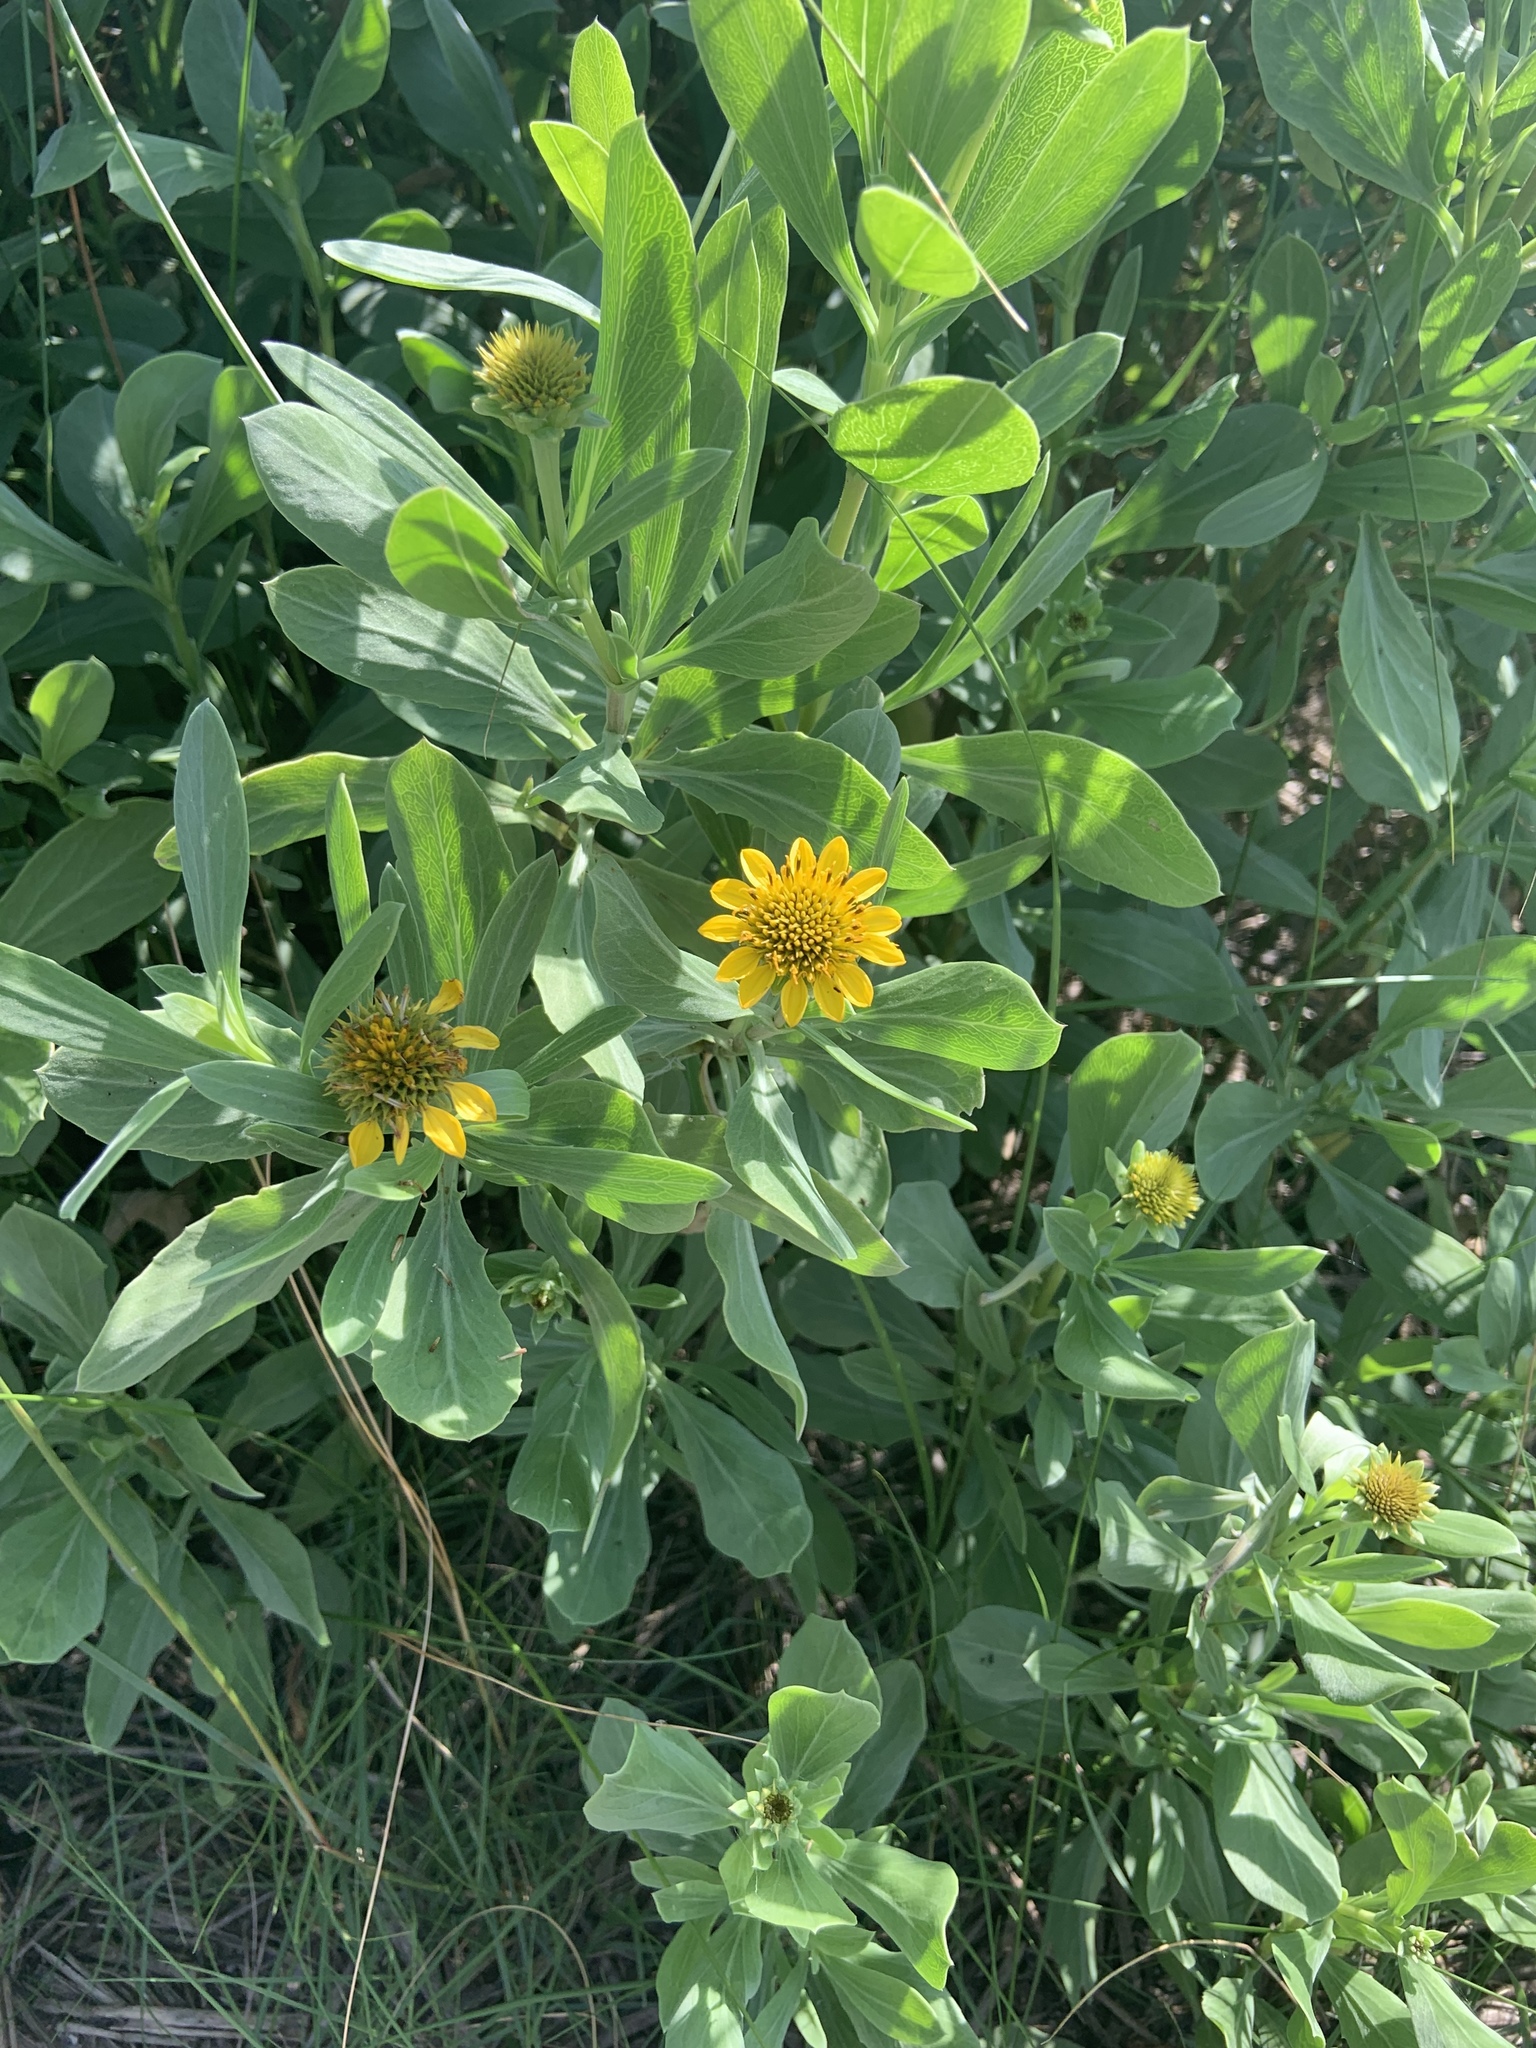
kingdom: Plantae
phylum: Tracheophyta
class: Magnoliopsida
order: Asterales
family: Asteraceae
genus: Borrichia
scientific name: Borrichia frutescens
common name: Sea oxeye
